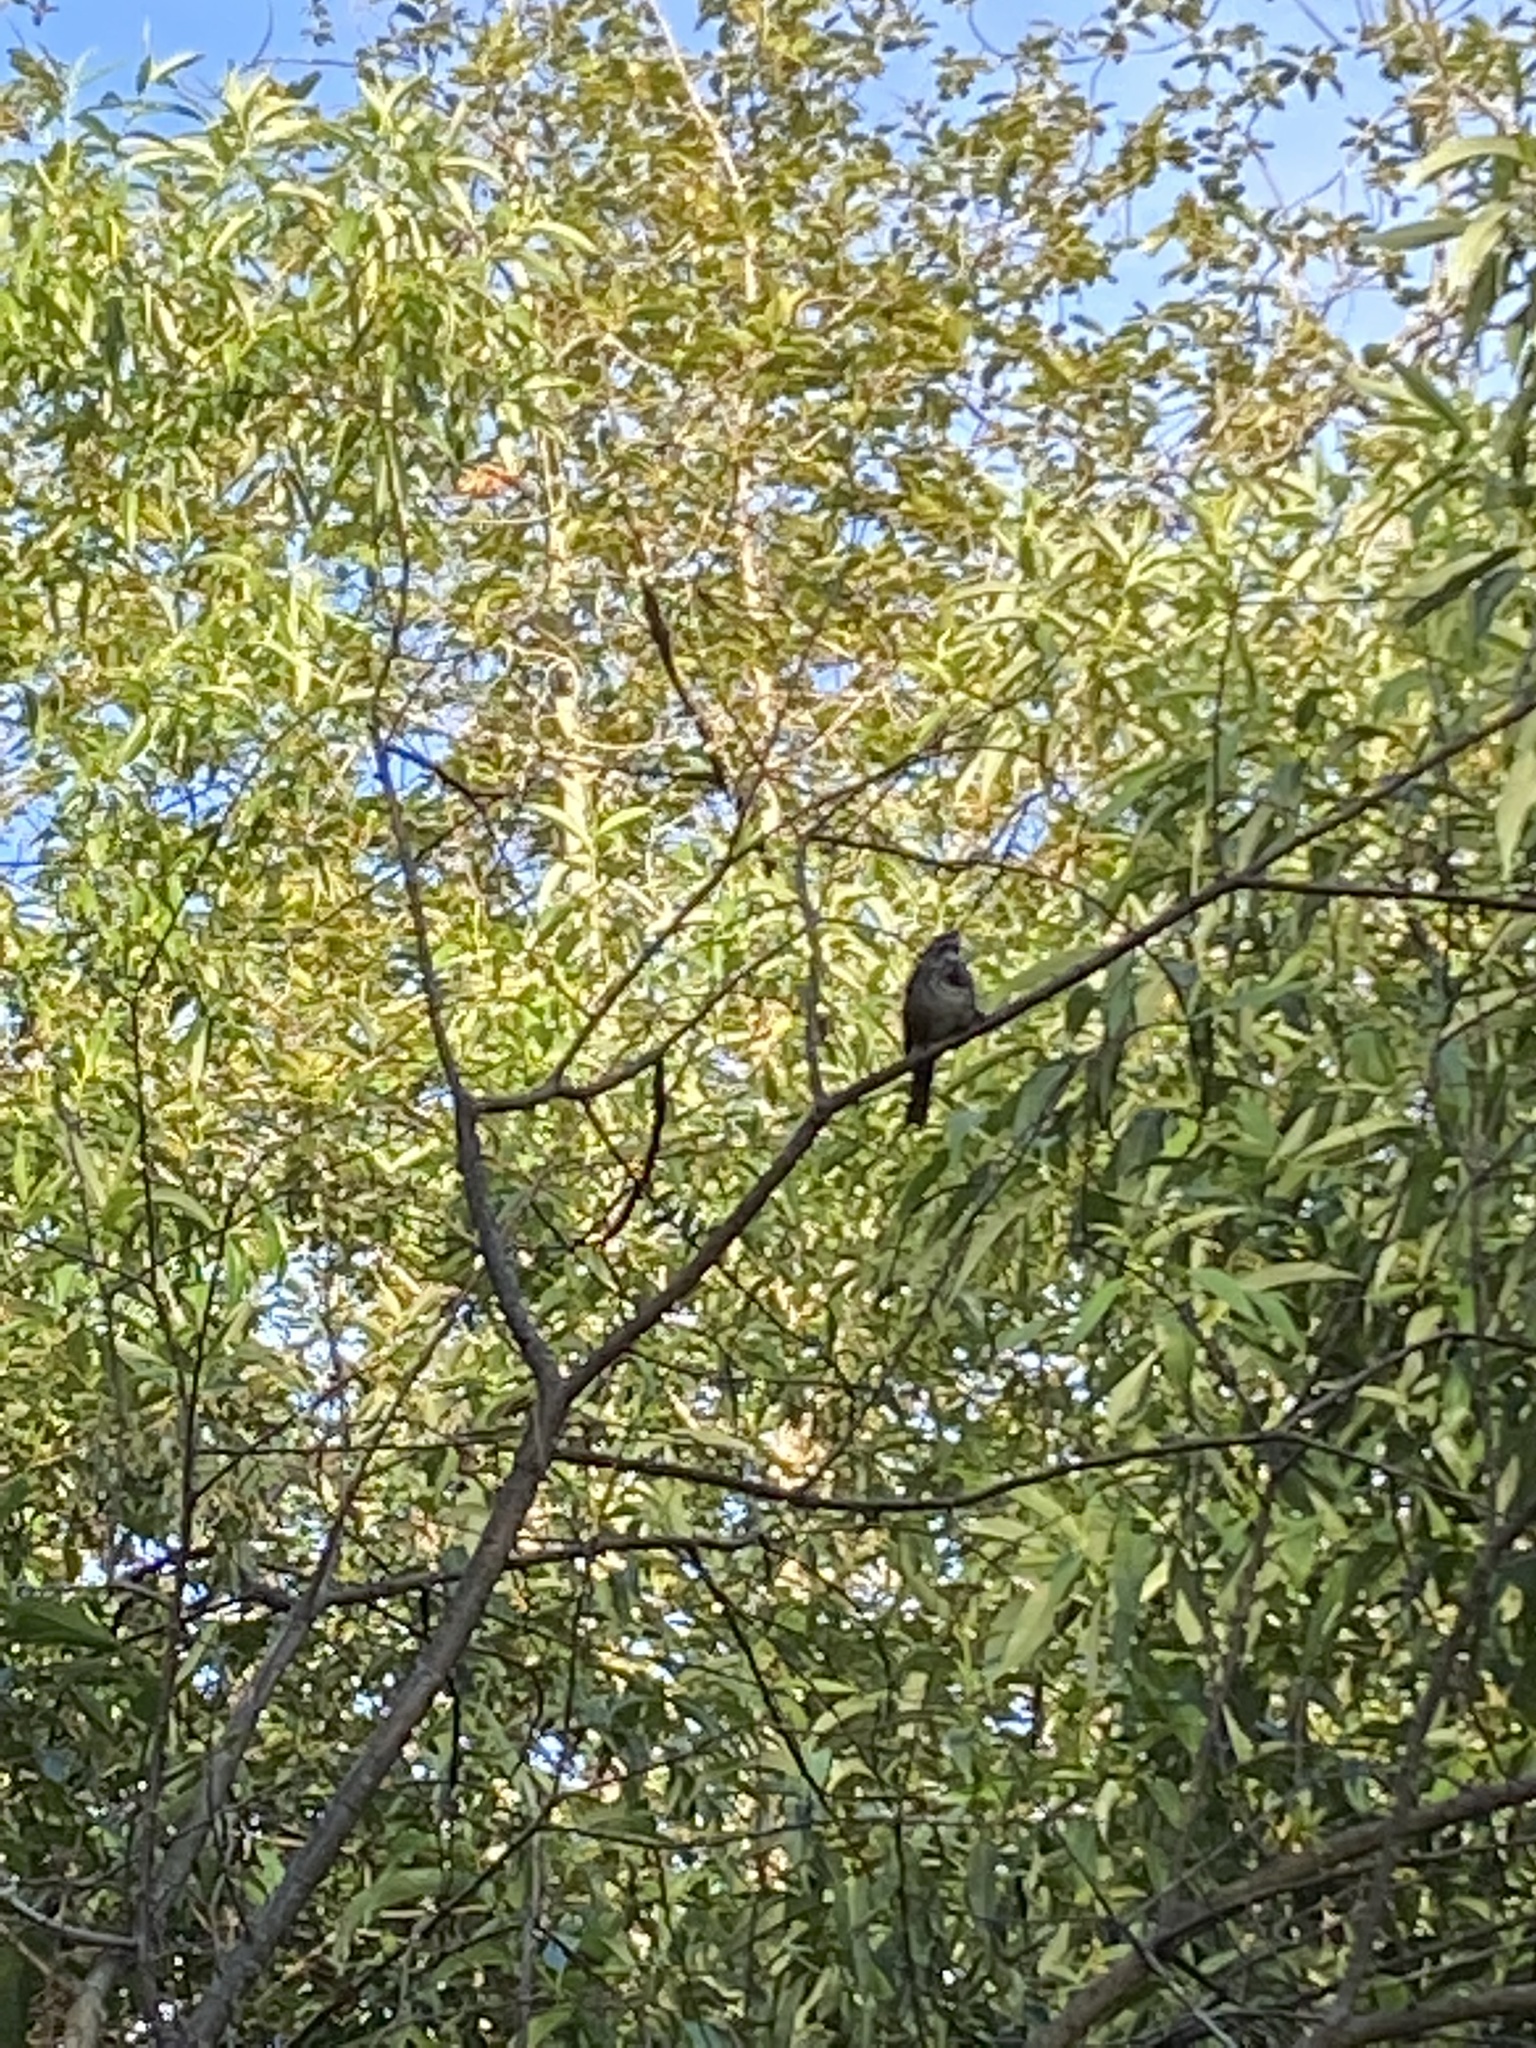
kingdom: Animalia
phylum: Chordata
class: Aves
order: Passeriformes
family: Passerellidae
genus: Melospiza
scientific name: Melospiza melodia
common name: Song sparrow
